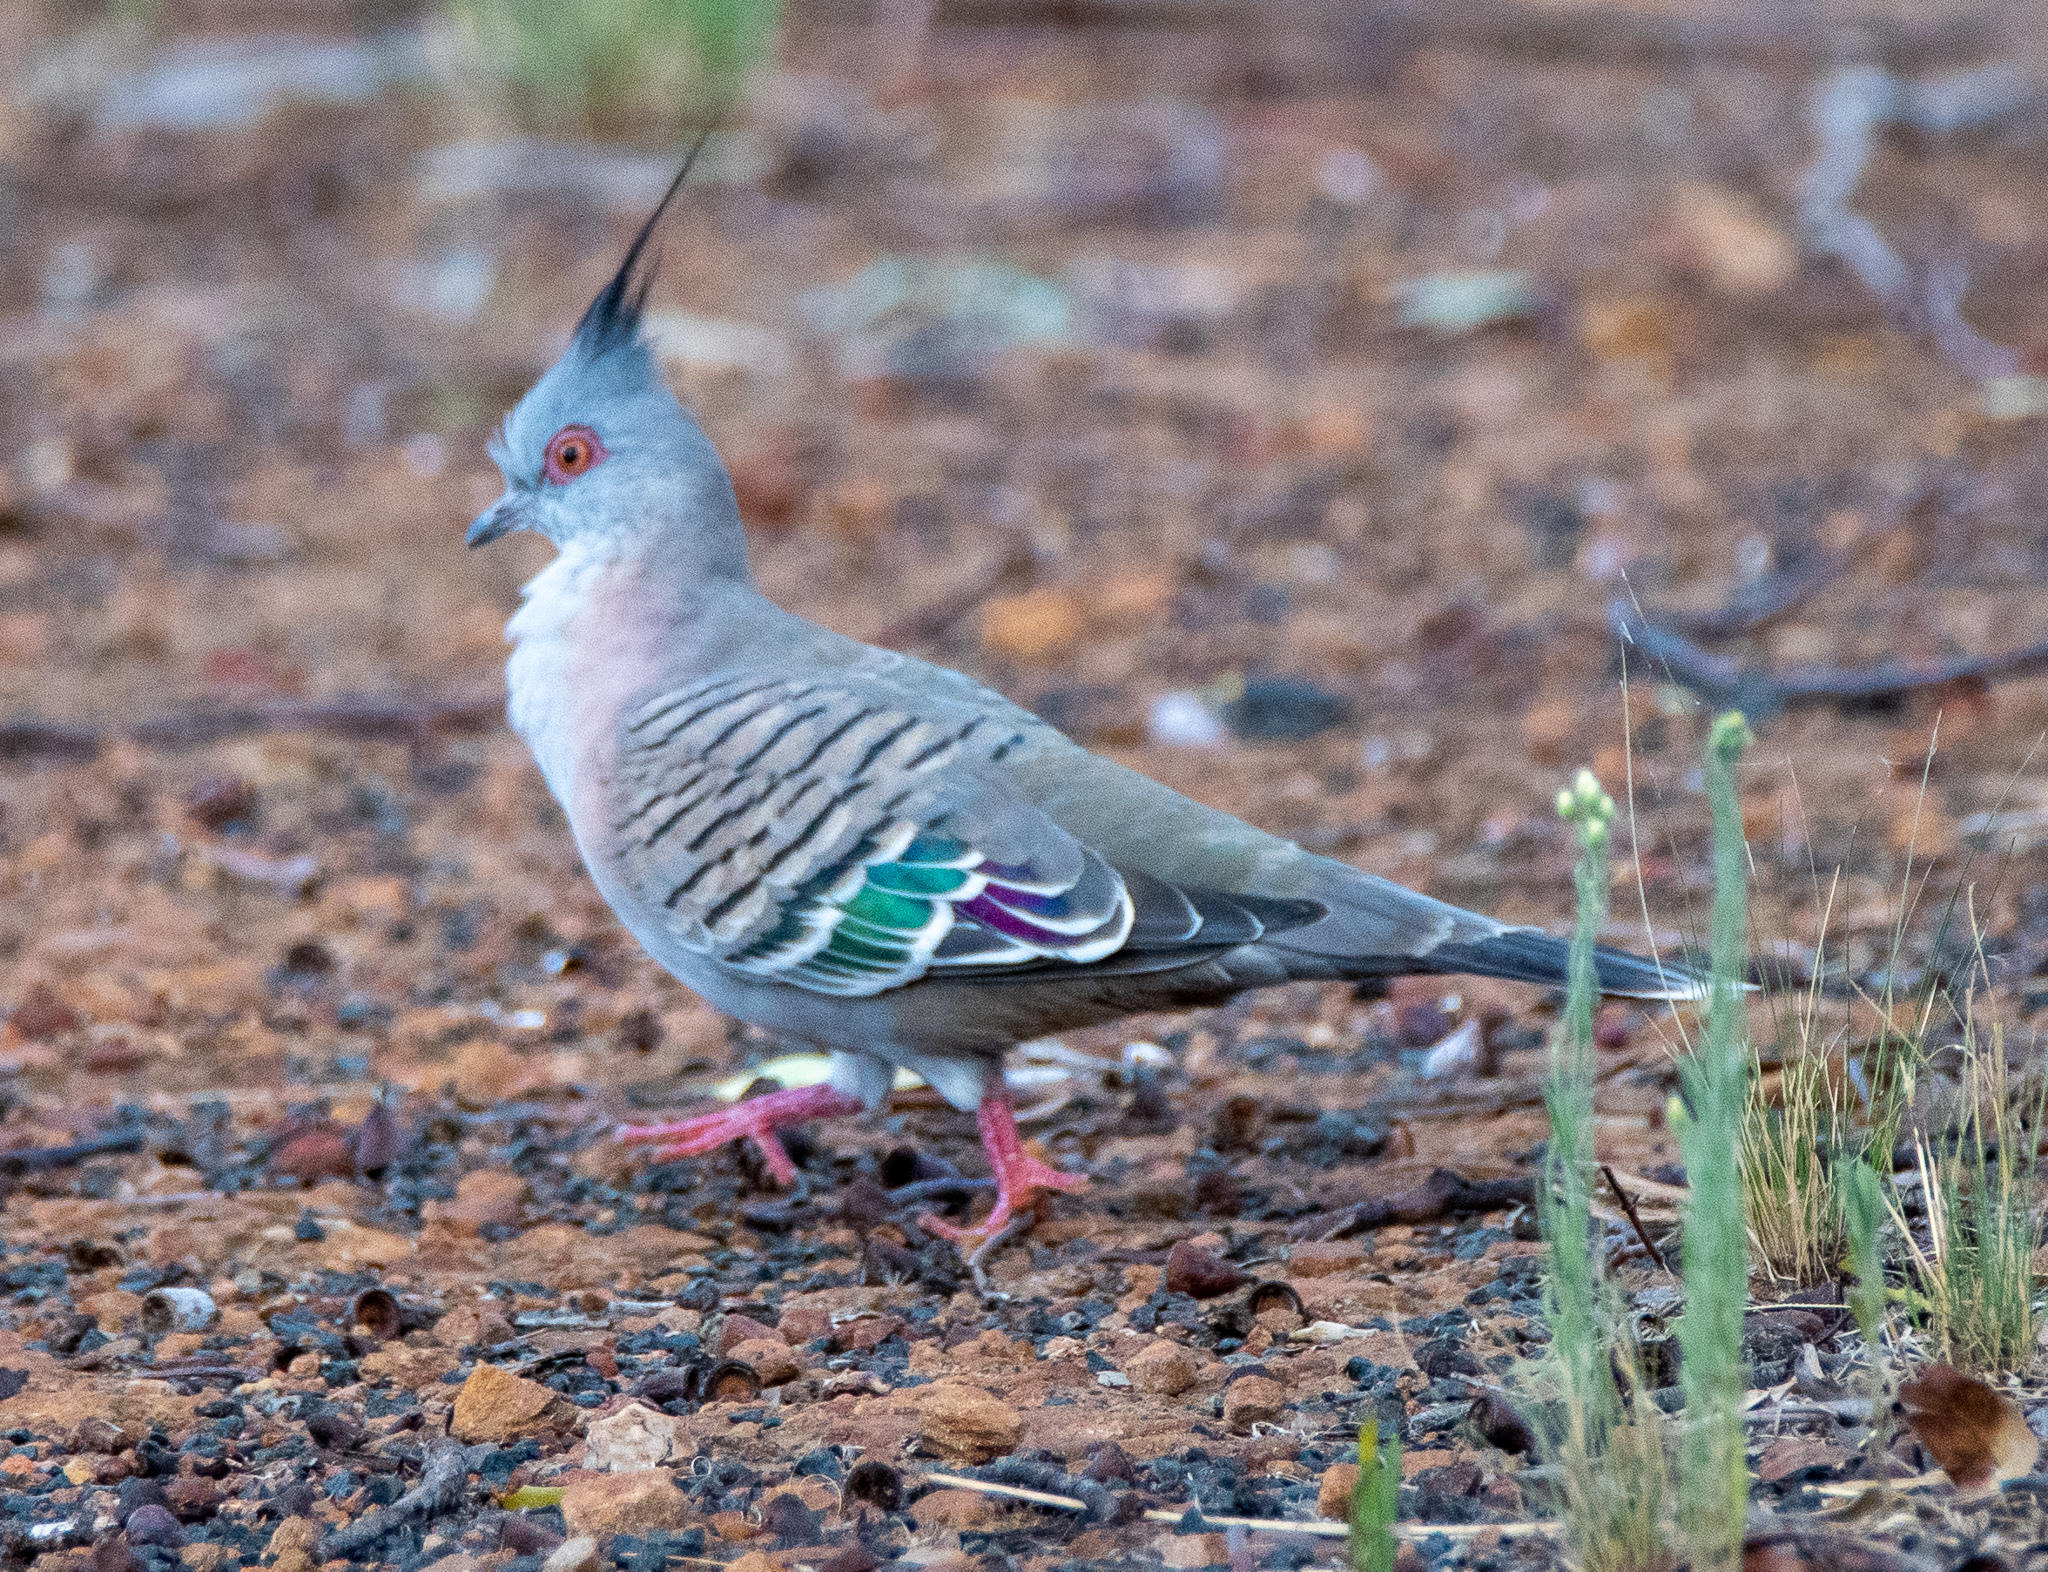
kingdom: Animalia
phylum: Chordata
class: Aves
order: Columbiformes
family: Columbidae
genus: Ocyphaps
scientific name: Ocyphaps lophotes
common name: Crested pigeon
